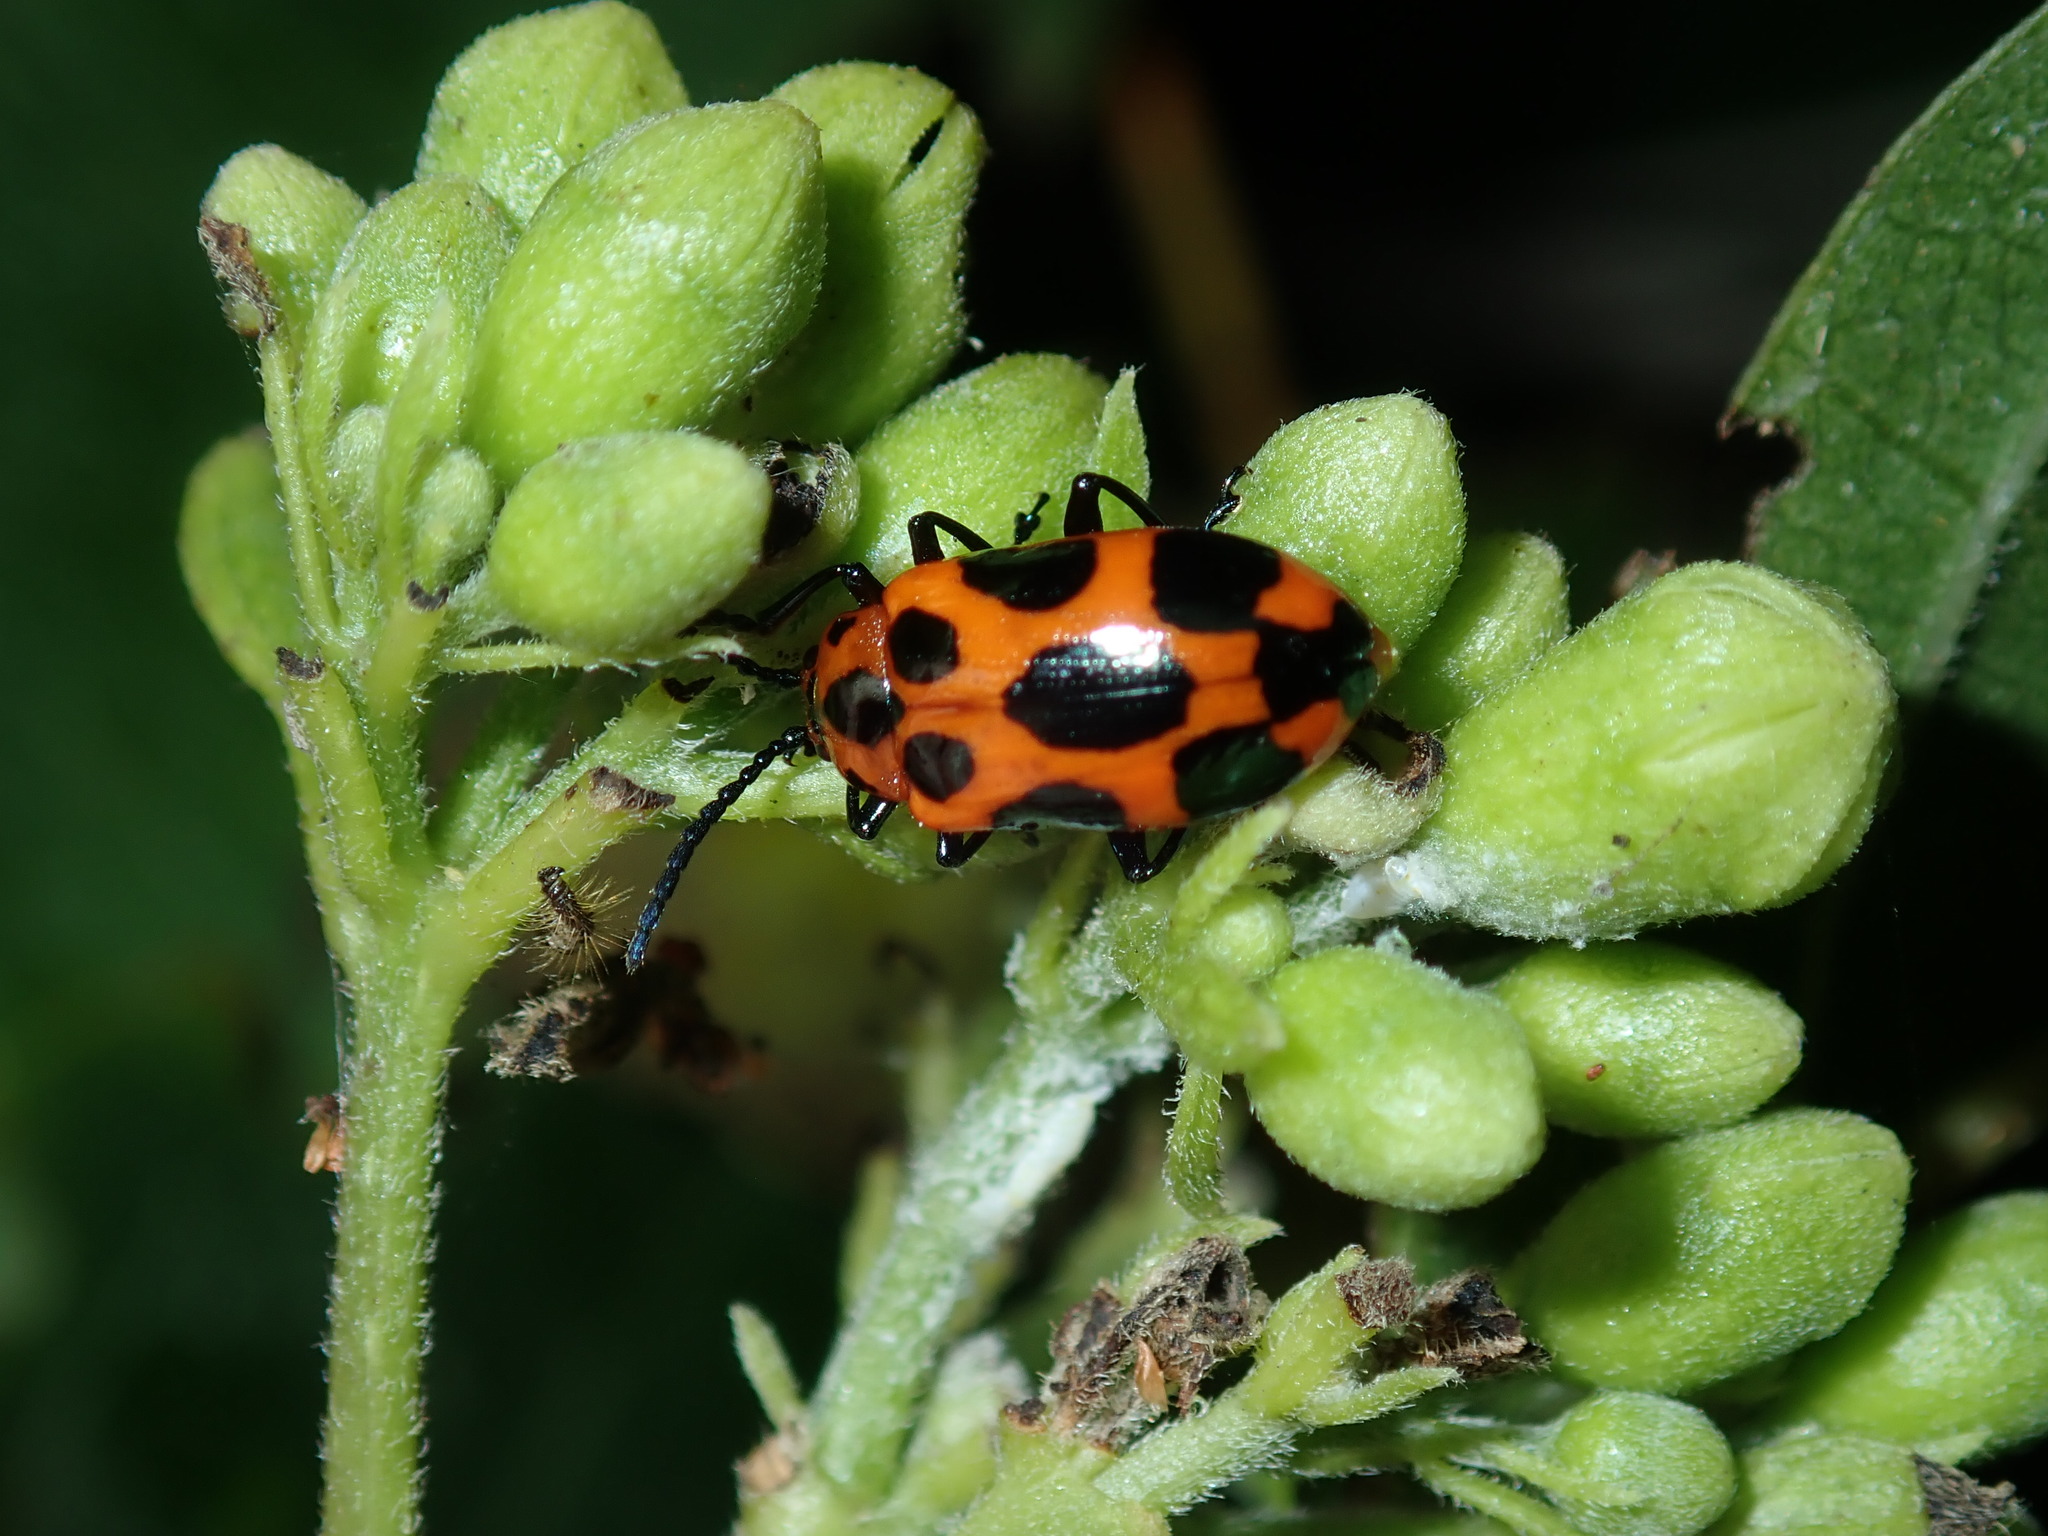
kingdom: Animalia
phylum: Arthropoda
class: Insecta
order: Coleoptera
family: Chrysomelidae
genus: Phyllocharis
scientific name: Phyllocharis
